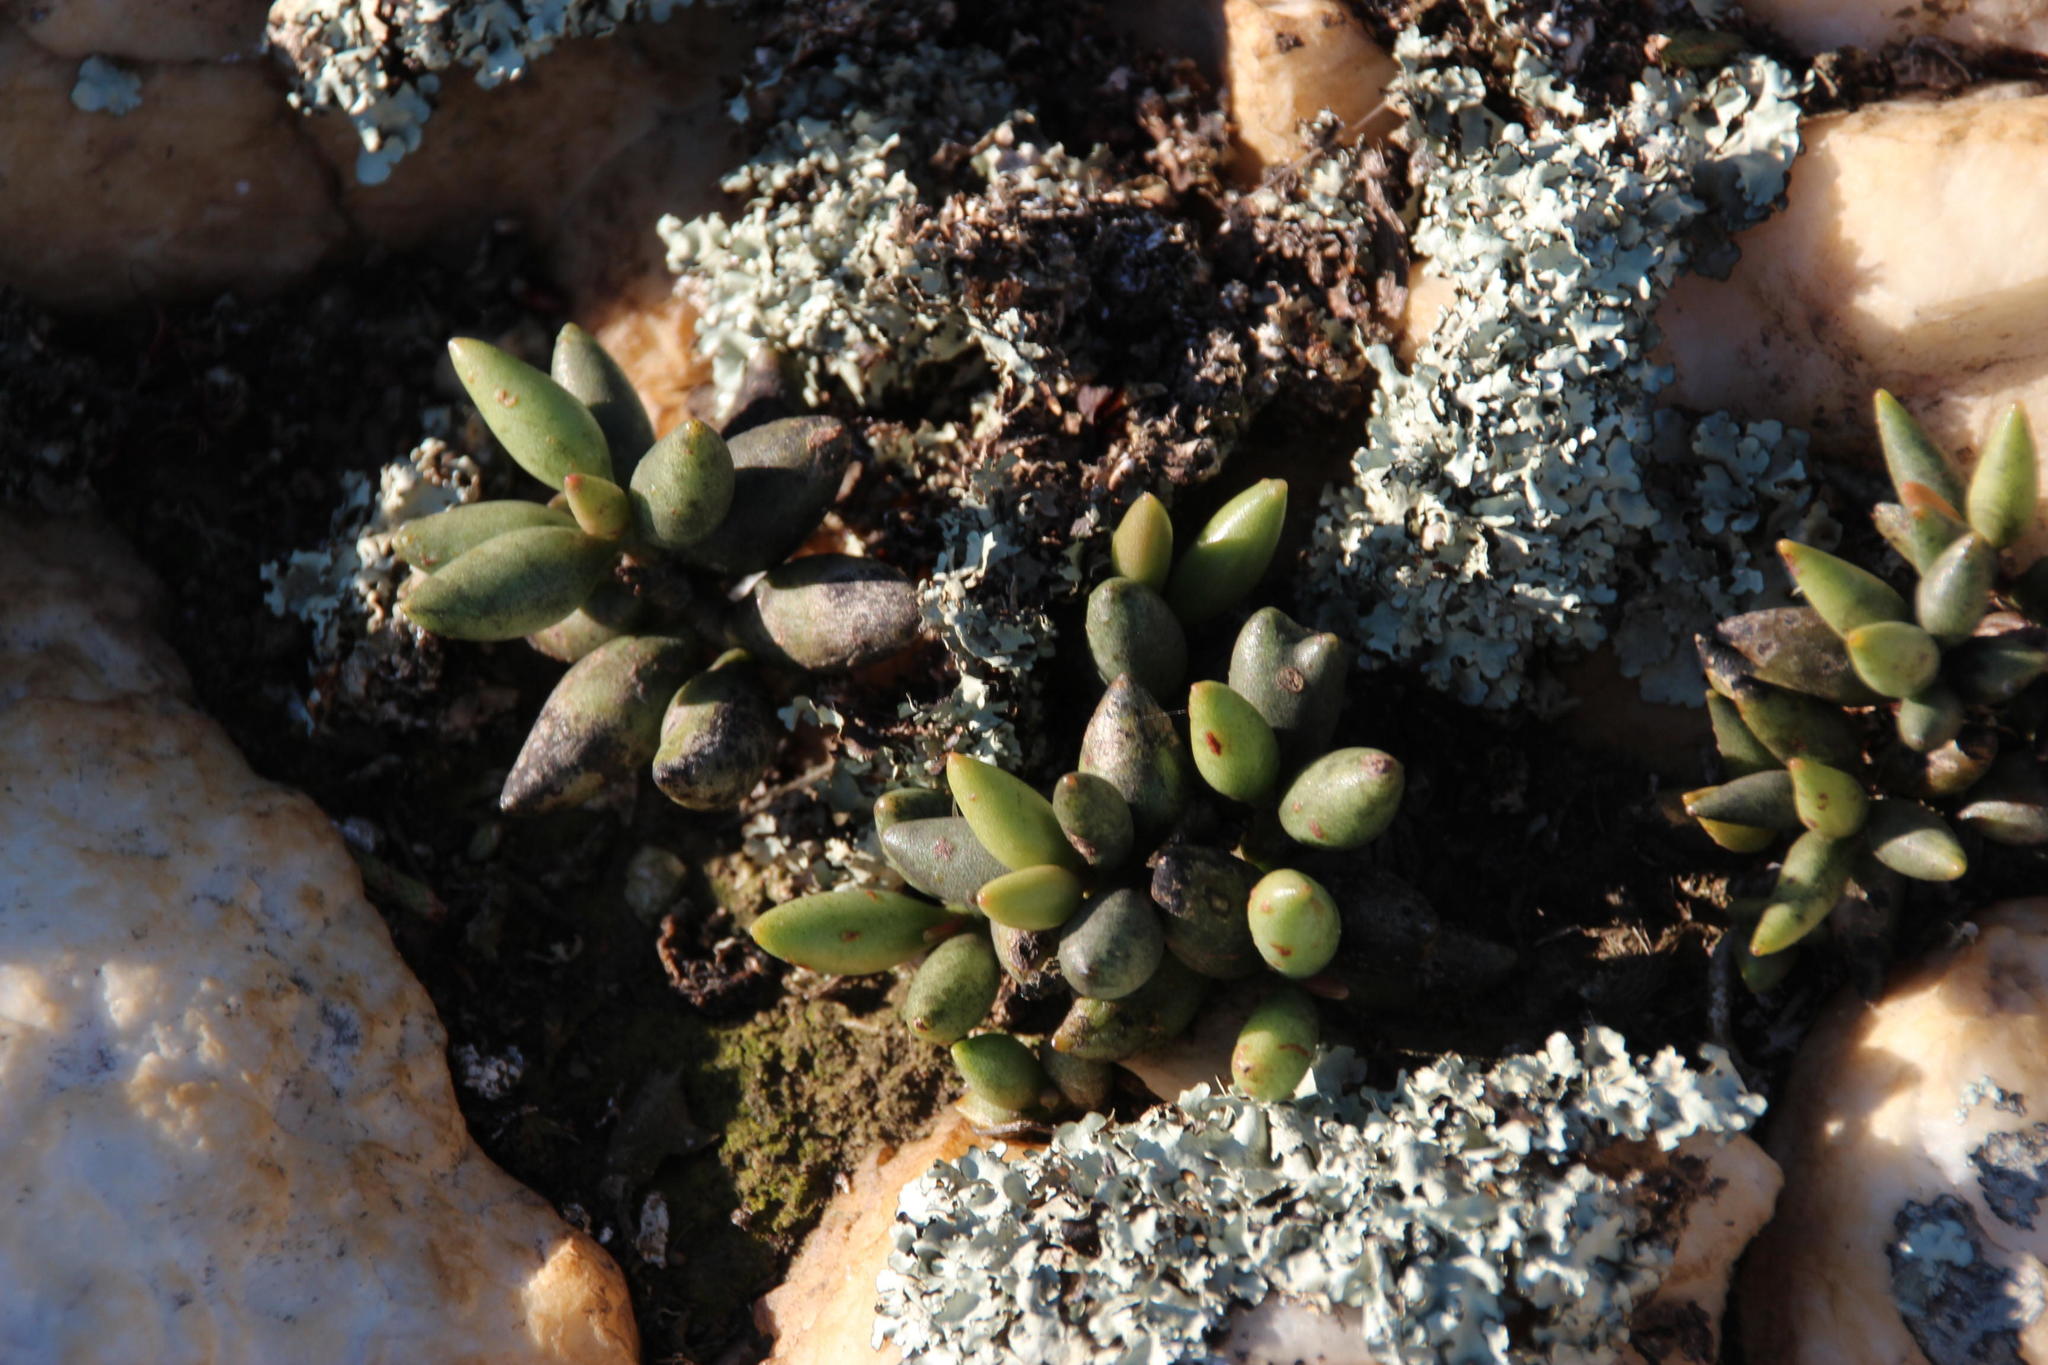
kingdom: Plantae
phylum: Tracheophyta
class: Magnoliopsida
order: Saxifragales
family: Crassulaceae
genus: Adromischus
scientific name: Adromischus filicaulis
